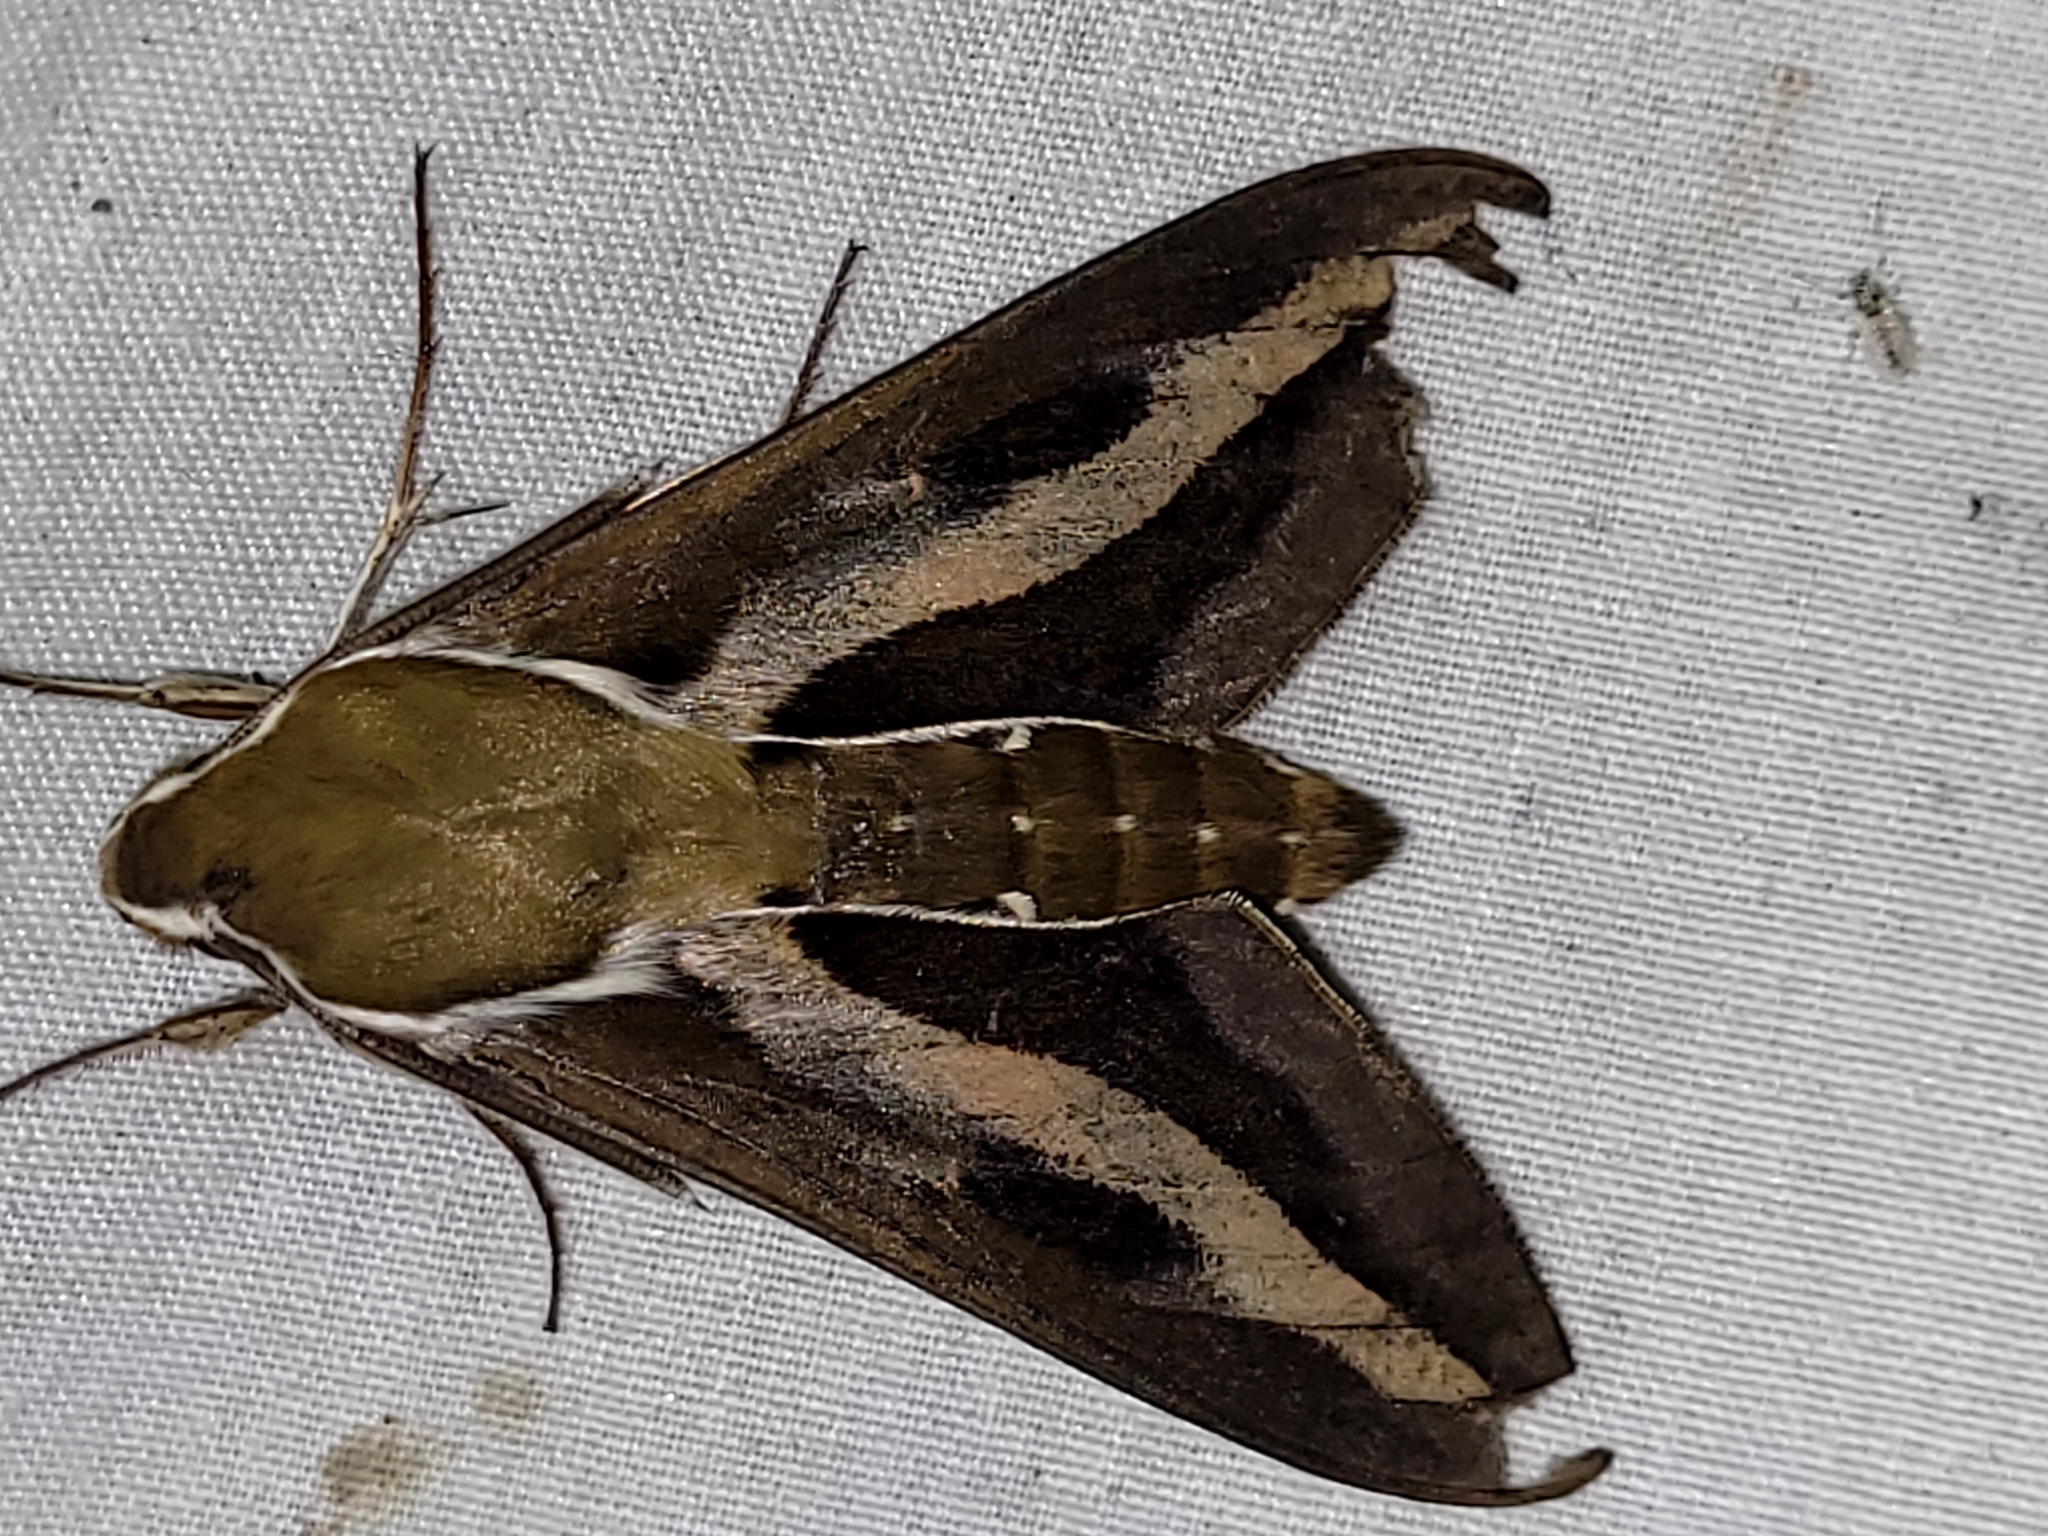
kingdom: Animalia
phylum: Arthropoda
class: Insecta
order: Lepidoptera
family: Sphingidae
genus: Hyles
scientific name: Hyles gallii
